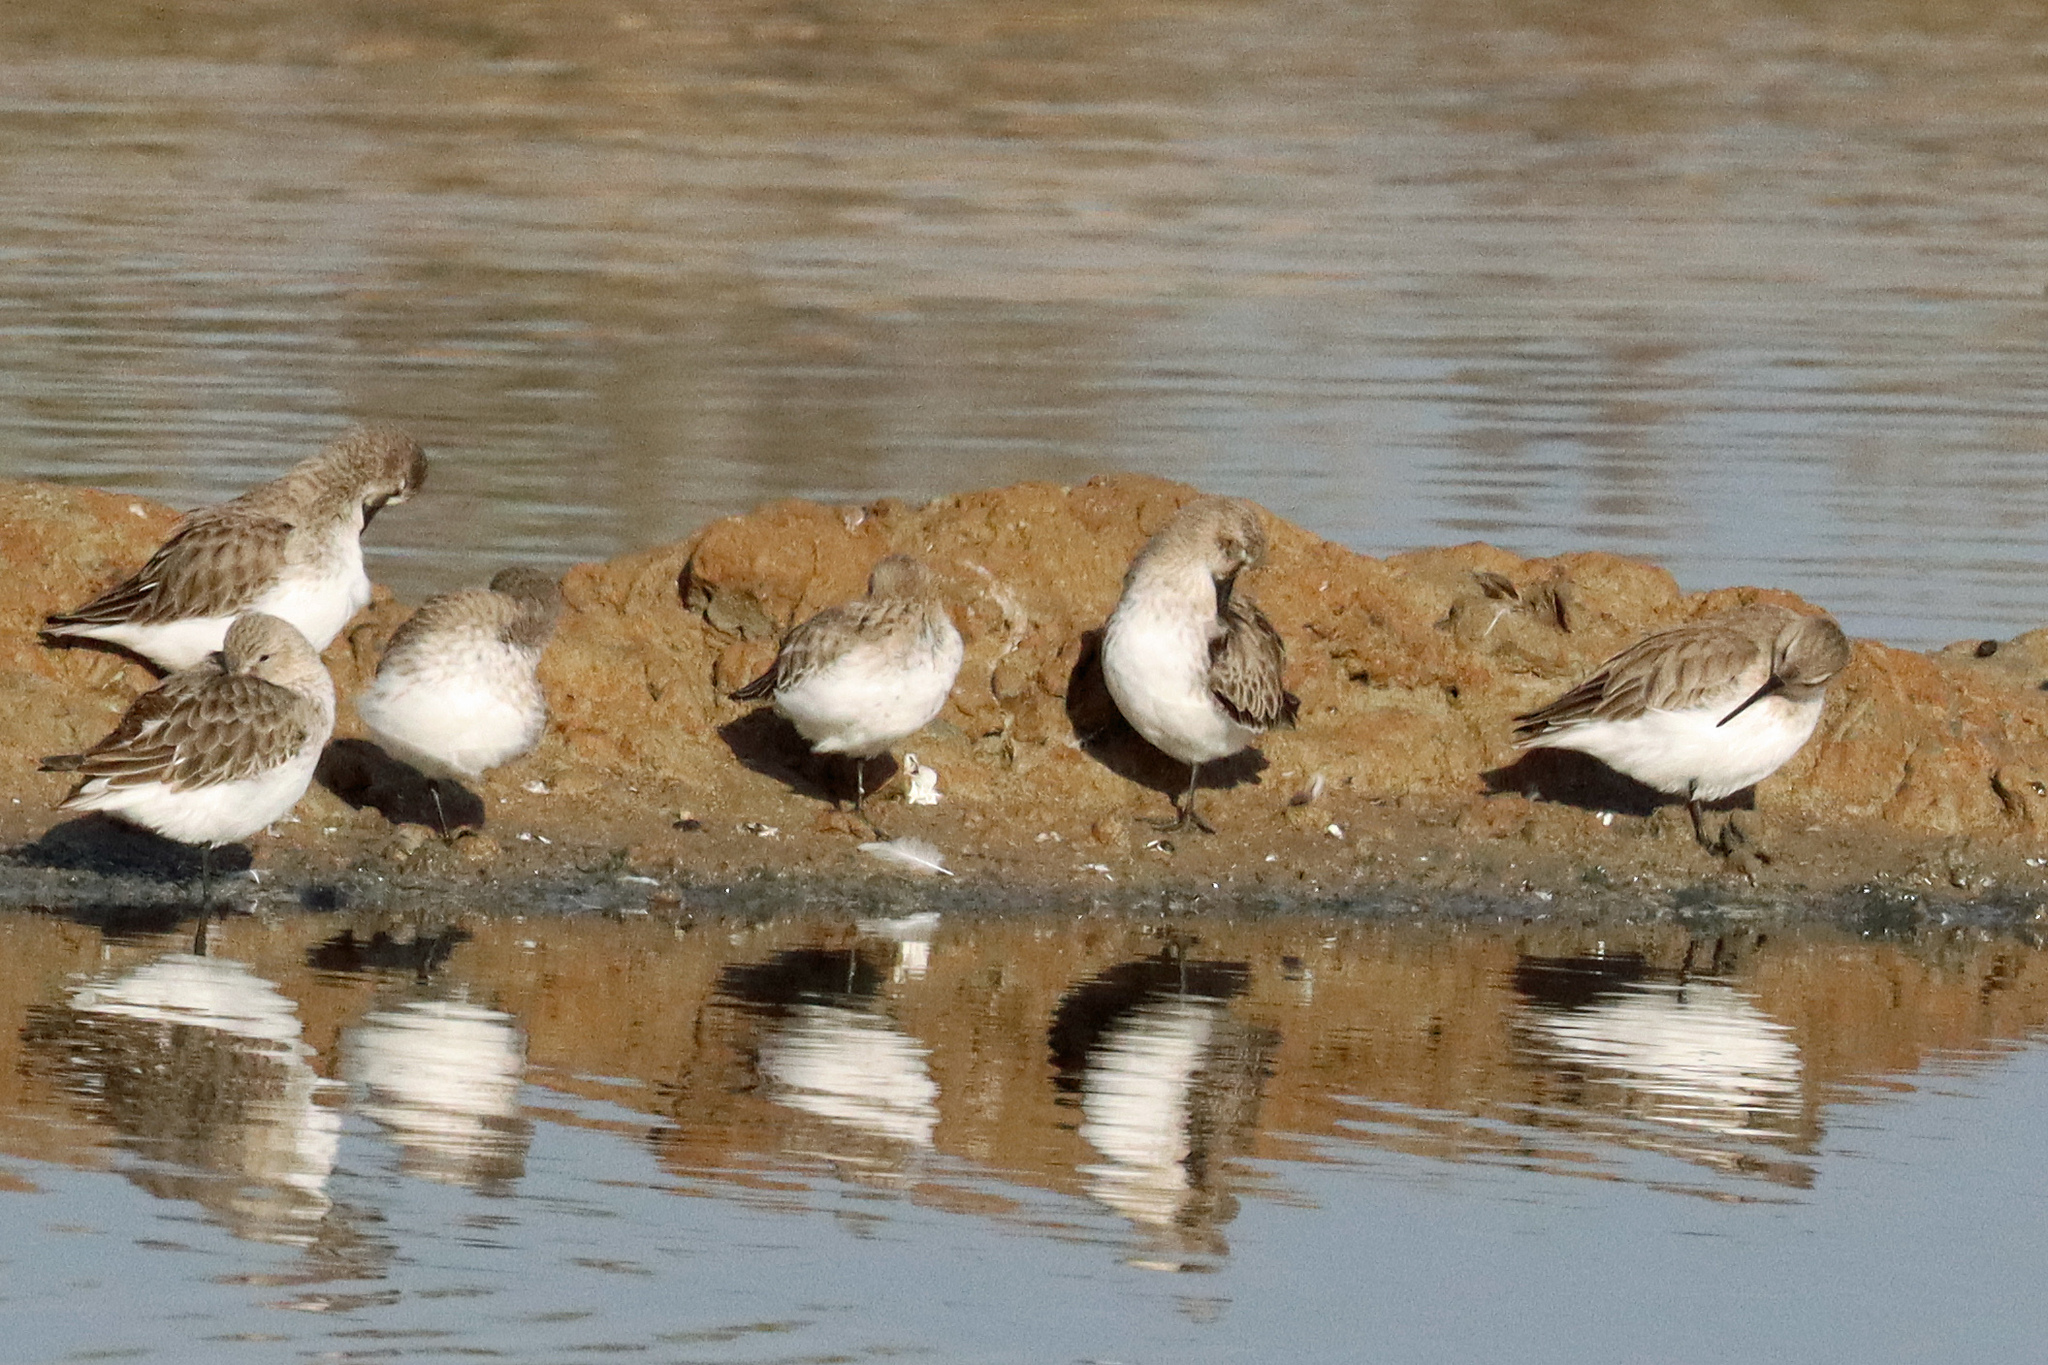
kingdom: Animalia
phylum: Chordata
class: Aves
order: Charadriiformes
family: Scolopacidae
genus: Calidris
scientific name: Calidris alpina
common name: Dunlin
